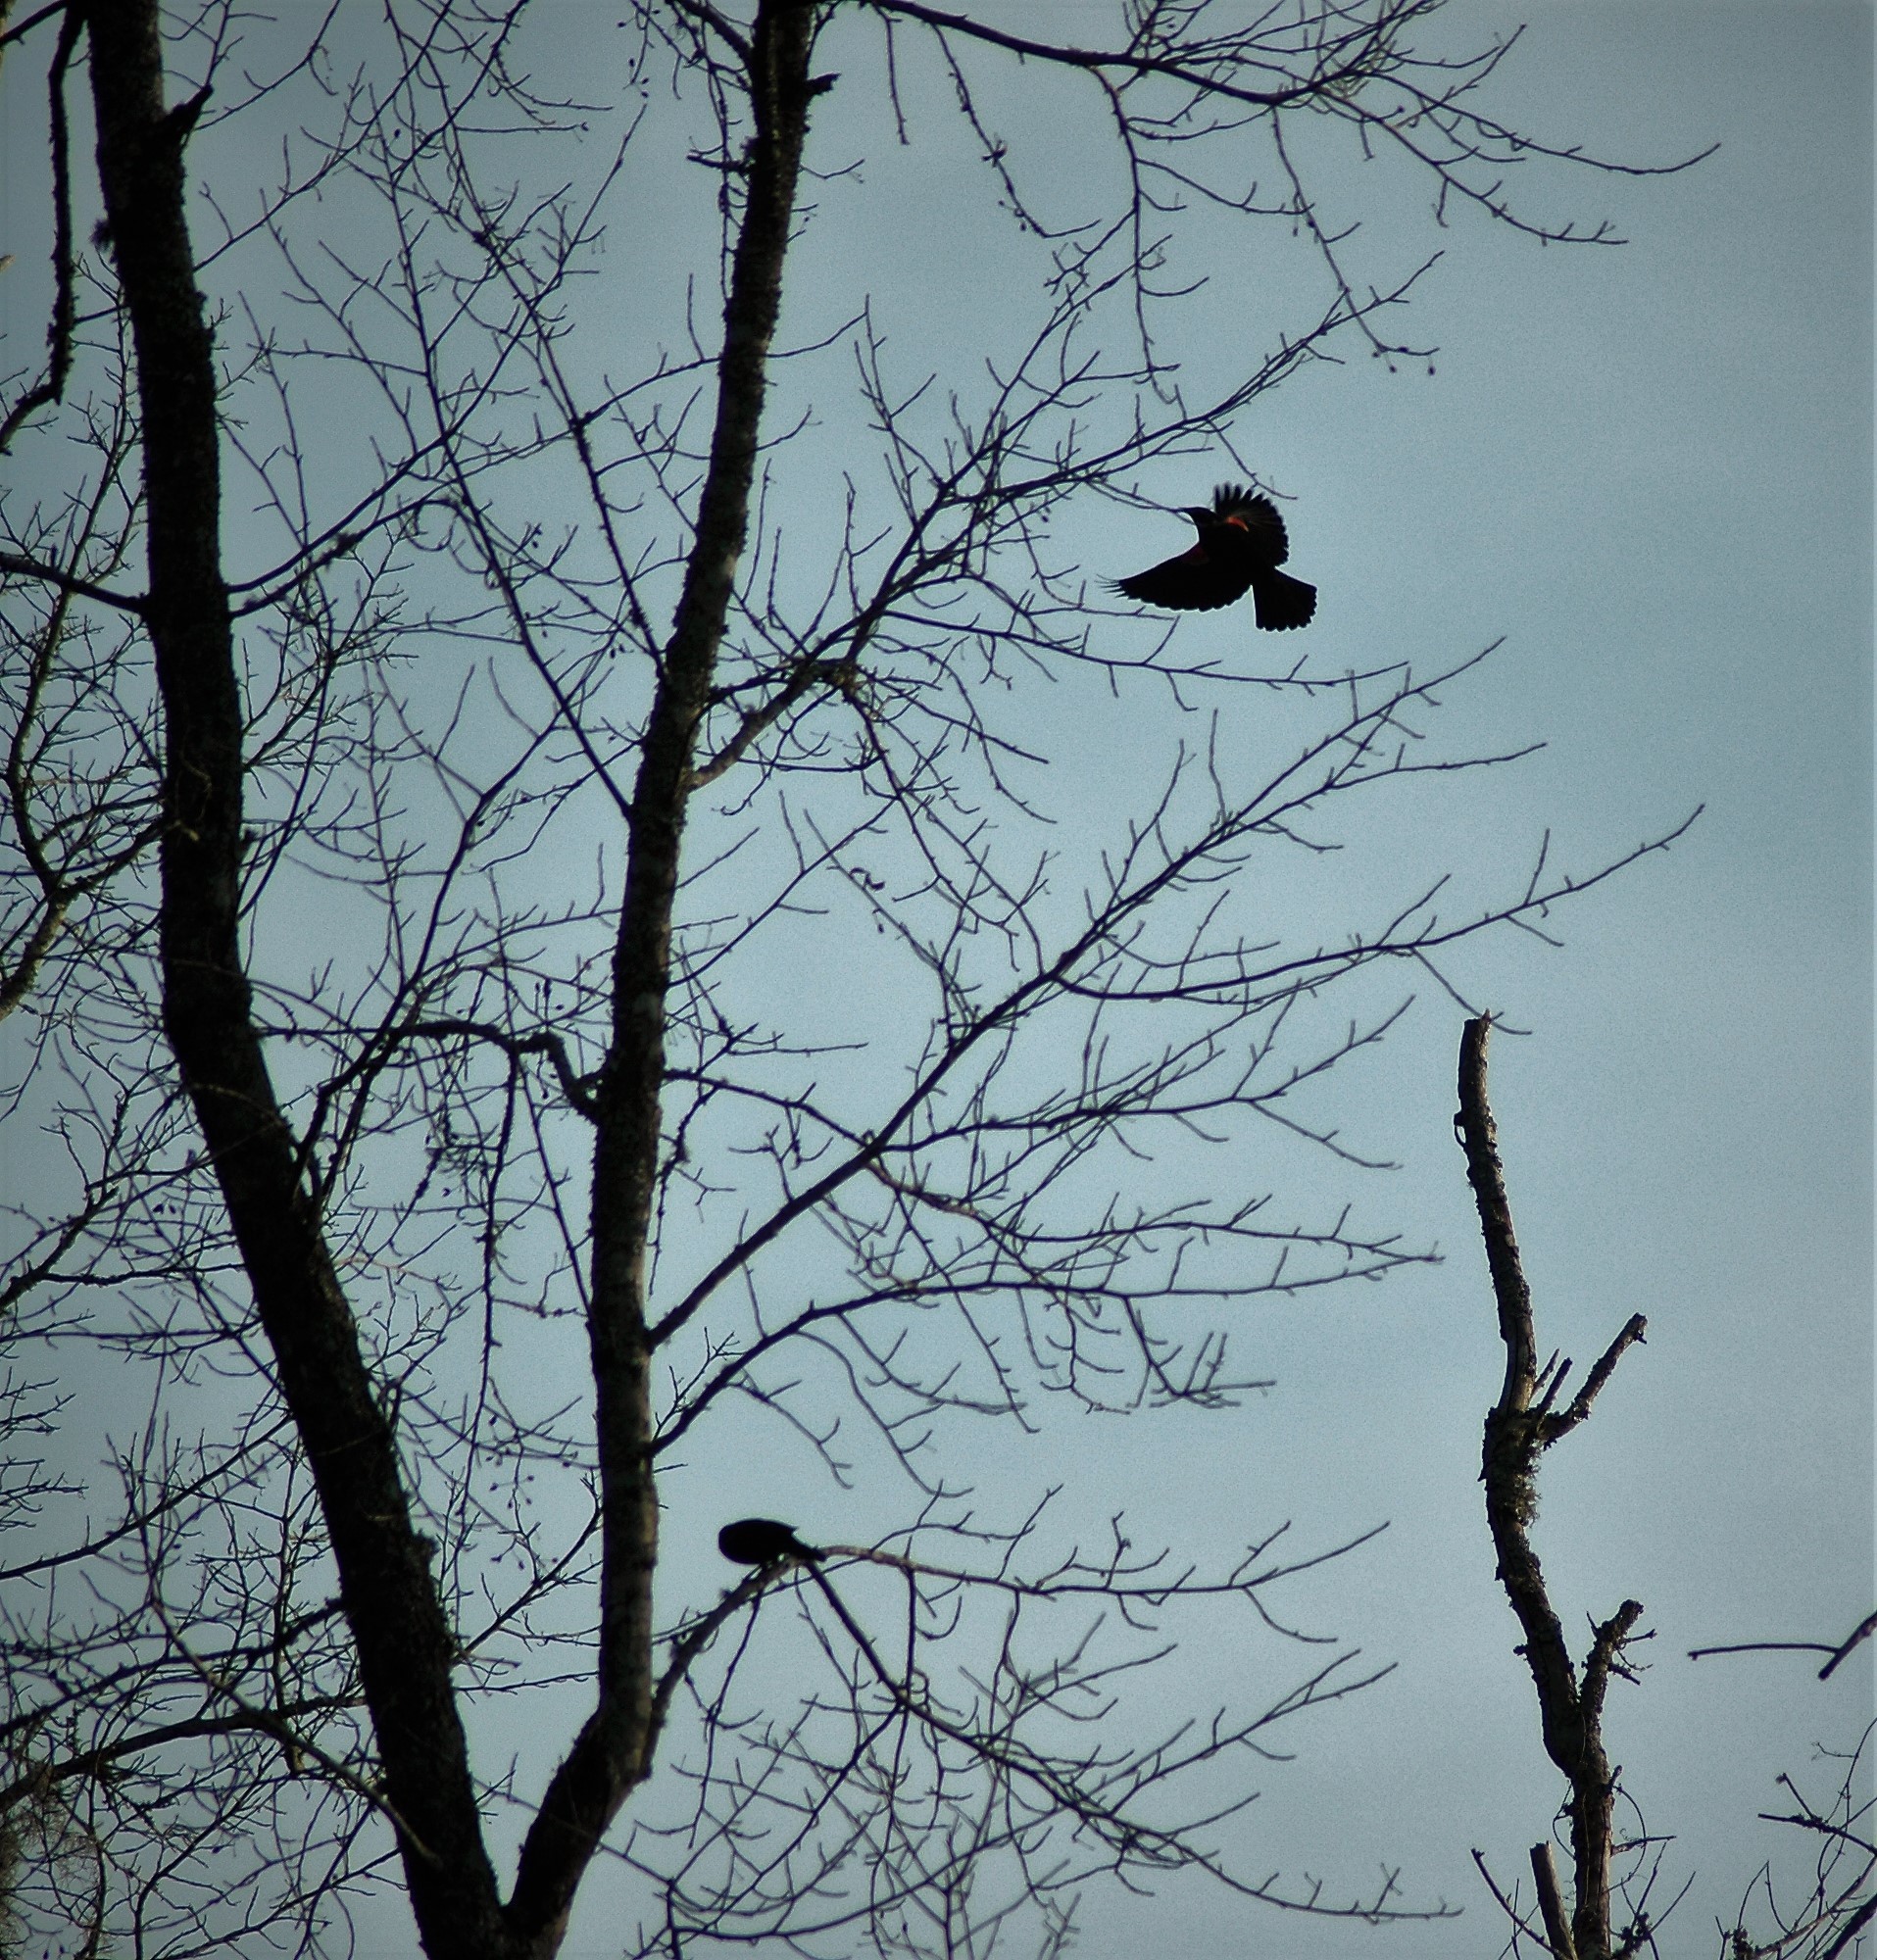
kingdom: Animalia
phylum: Chordata
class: Aves
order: Passeriformes
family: Icteridae
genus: Agelaius
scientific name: Agelaius phoeniceus
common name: Red-winged blackbird
